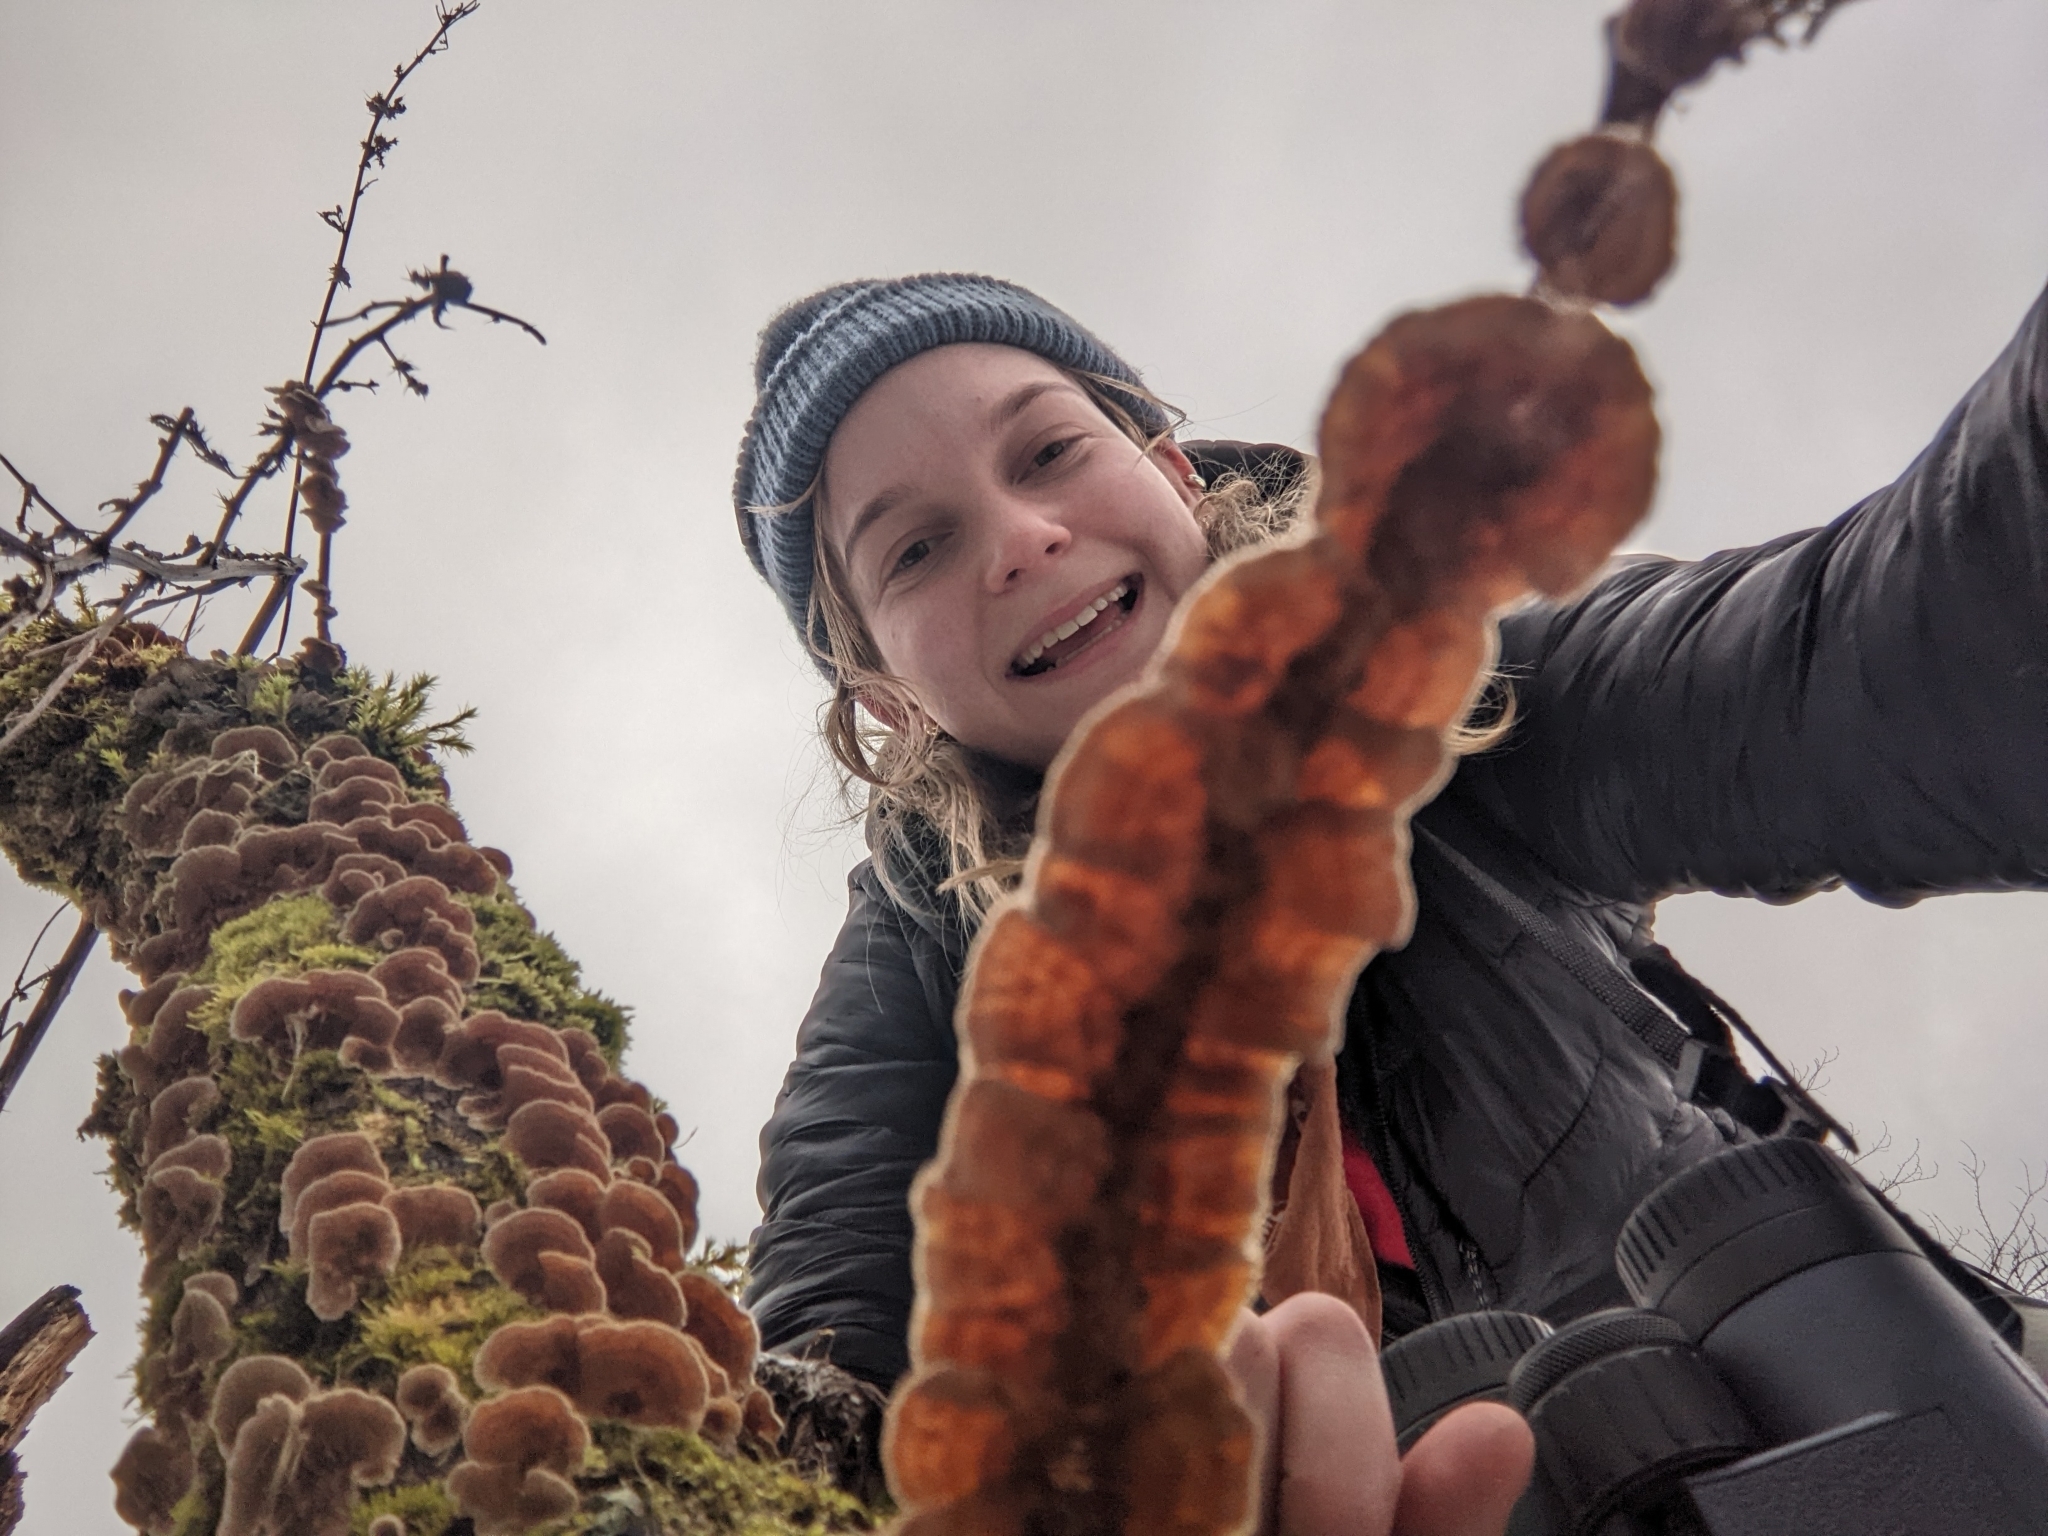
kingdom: Fungi
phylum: Basidiomycota
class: Agaricomycetes
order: Russulales
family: Stereaceae
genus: Stereum
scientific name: Stereum ochraceoflavum
